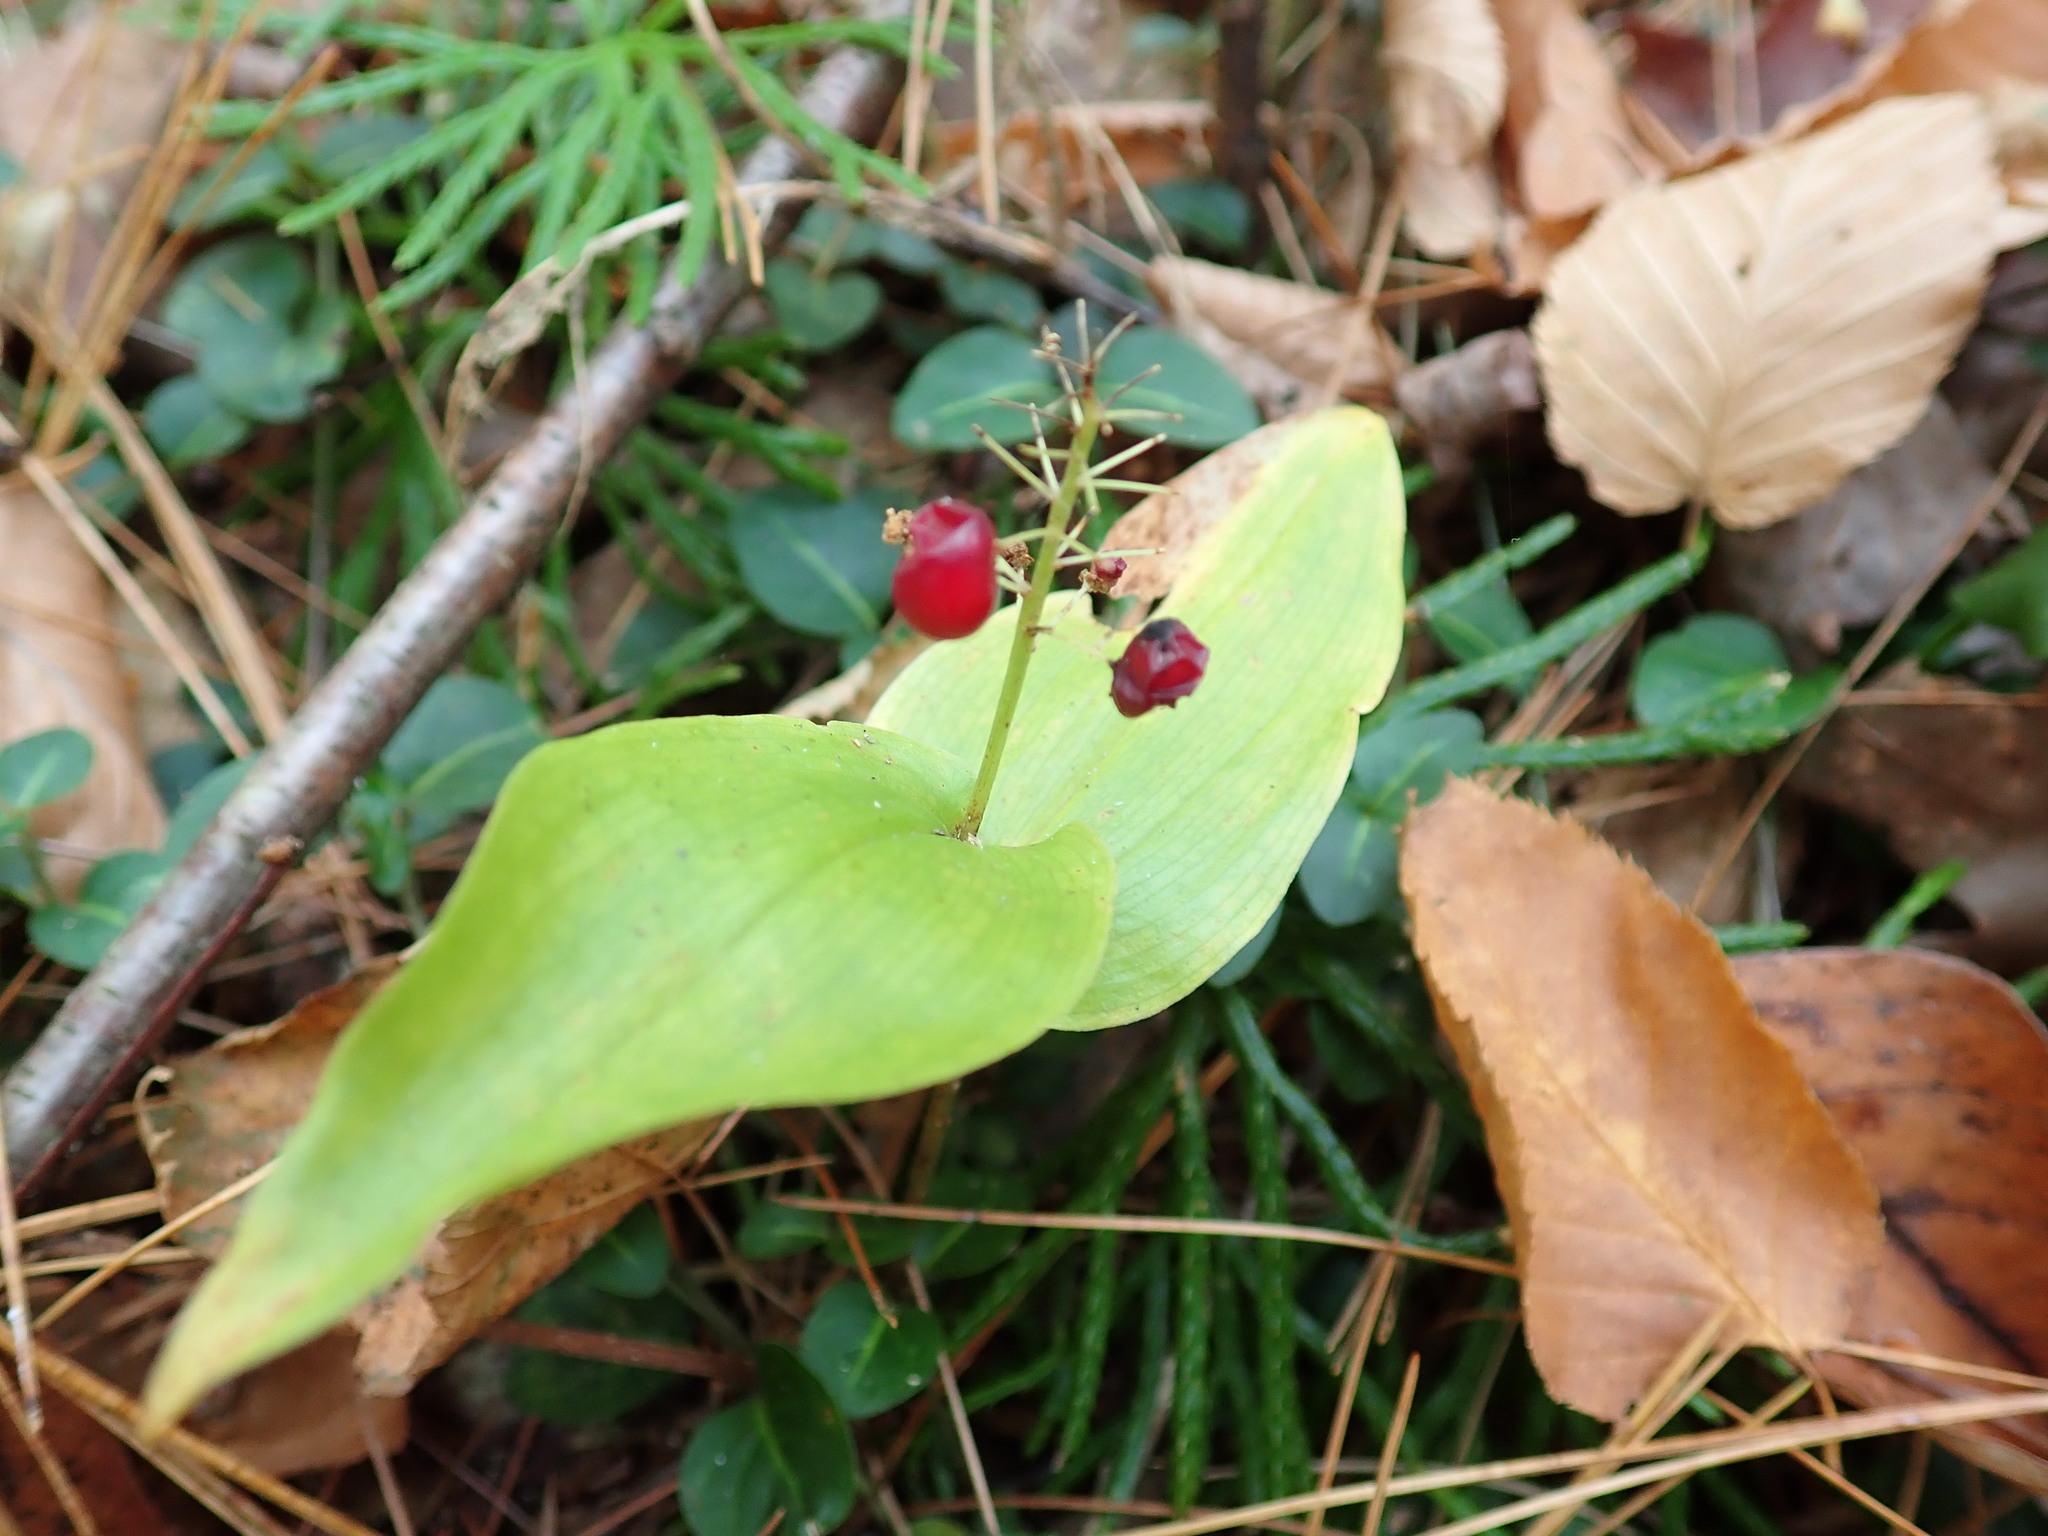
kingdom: Plantae
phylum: Tracheophyta
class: Liliopsida
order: Asparagales
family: Asparagaceae
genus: Maianthemum
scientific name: Maianthemum canadense
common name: False lily-of-the-valley
